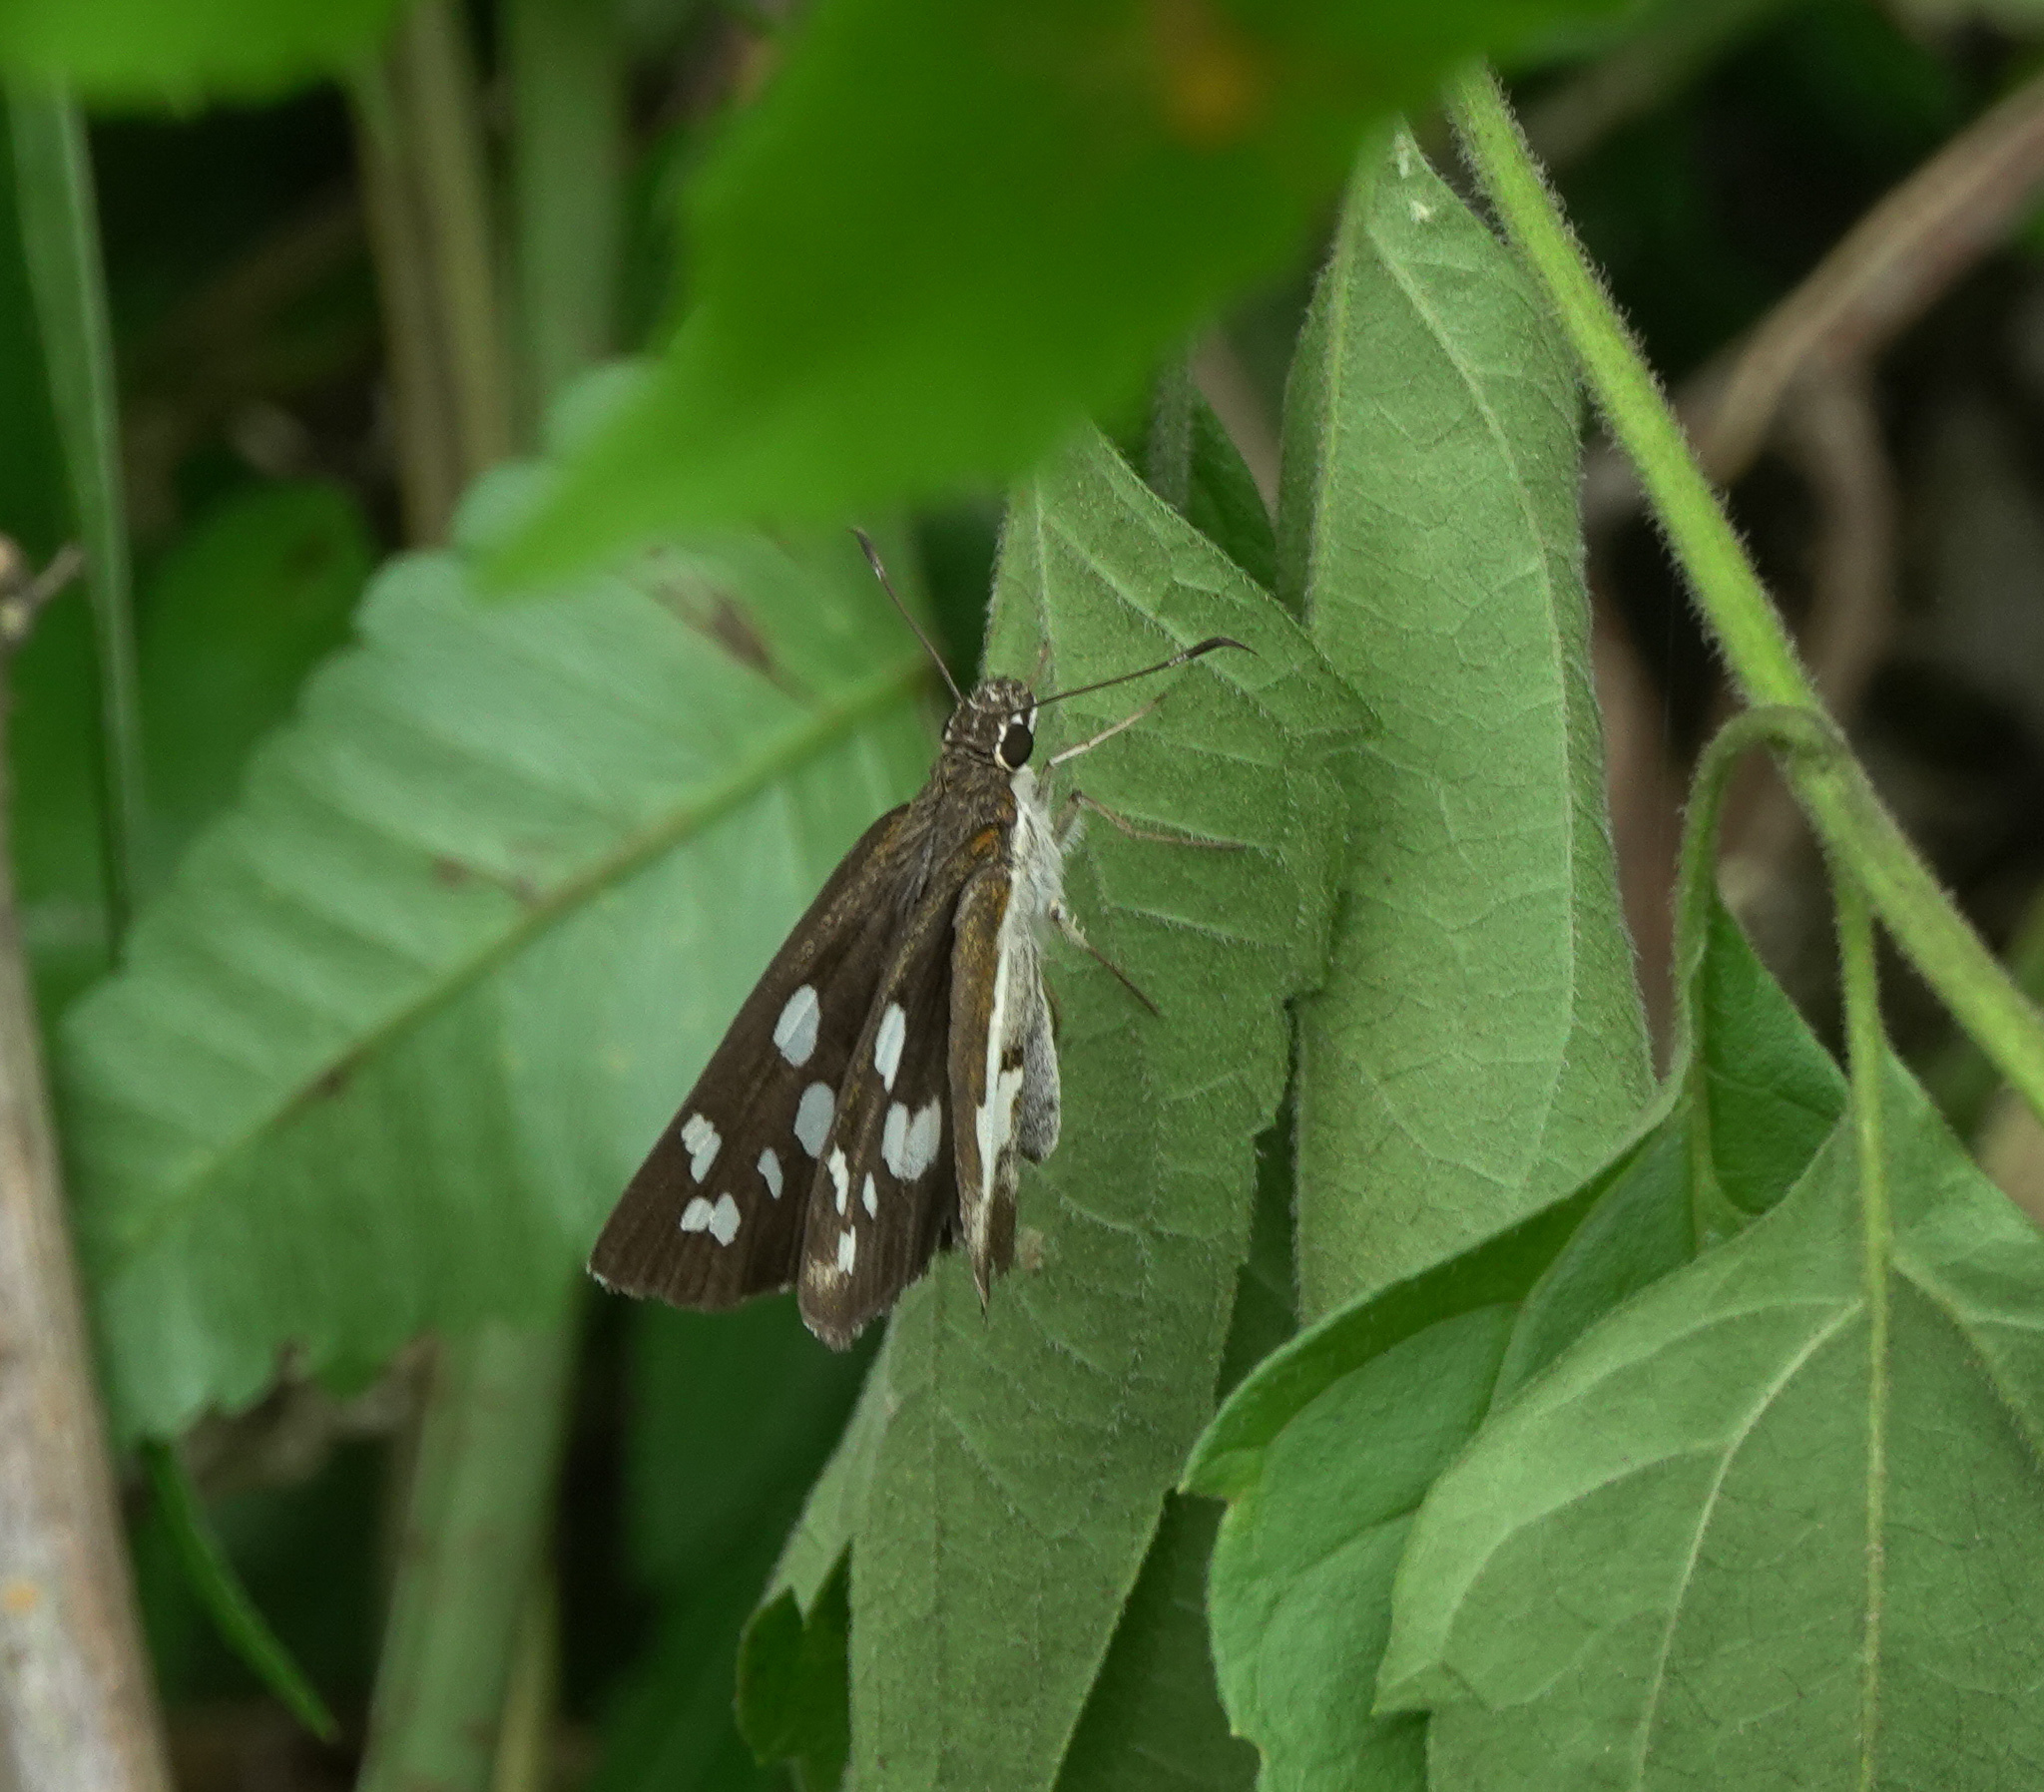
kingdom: Animalia
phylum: Arthropoda
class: Insecta
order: Lepidoptera
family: Hesperiidae
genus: Udaspes
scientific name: Udaspes folus
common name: Grass demon
